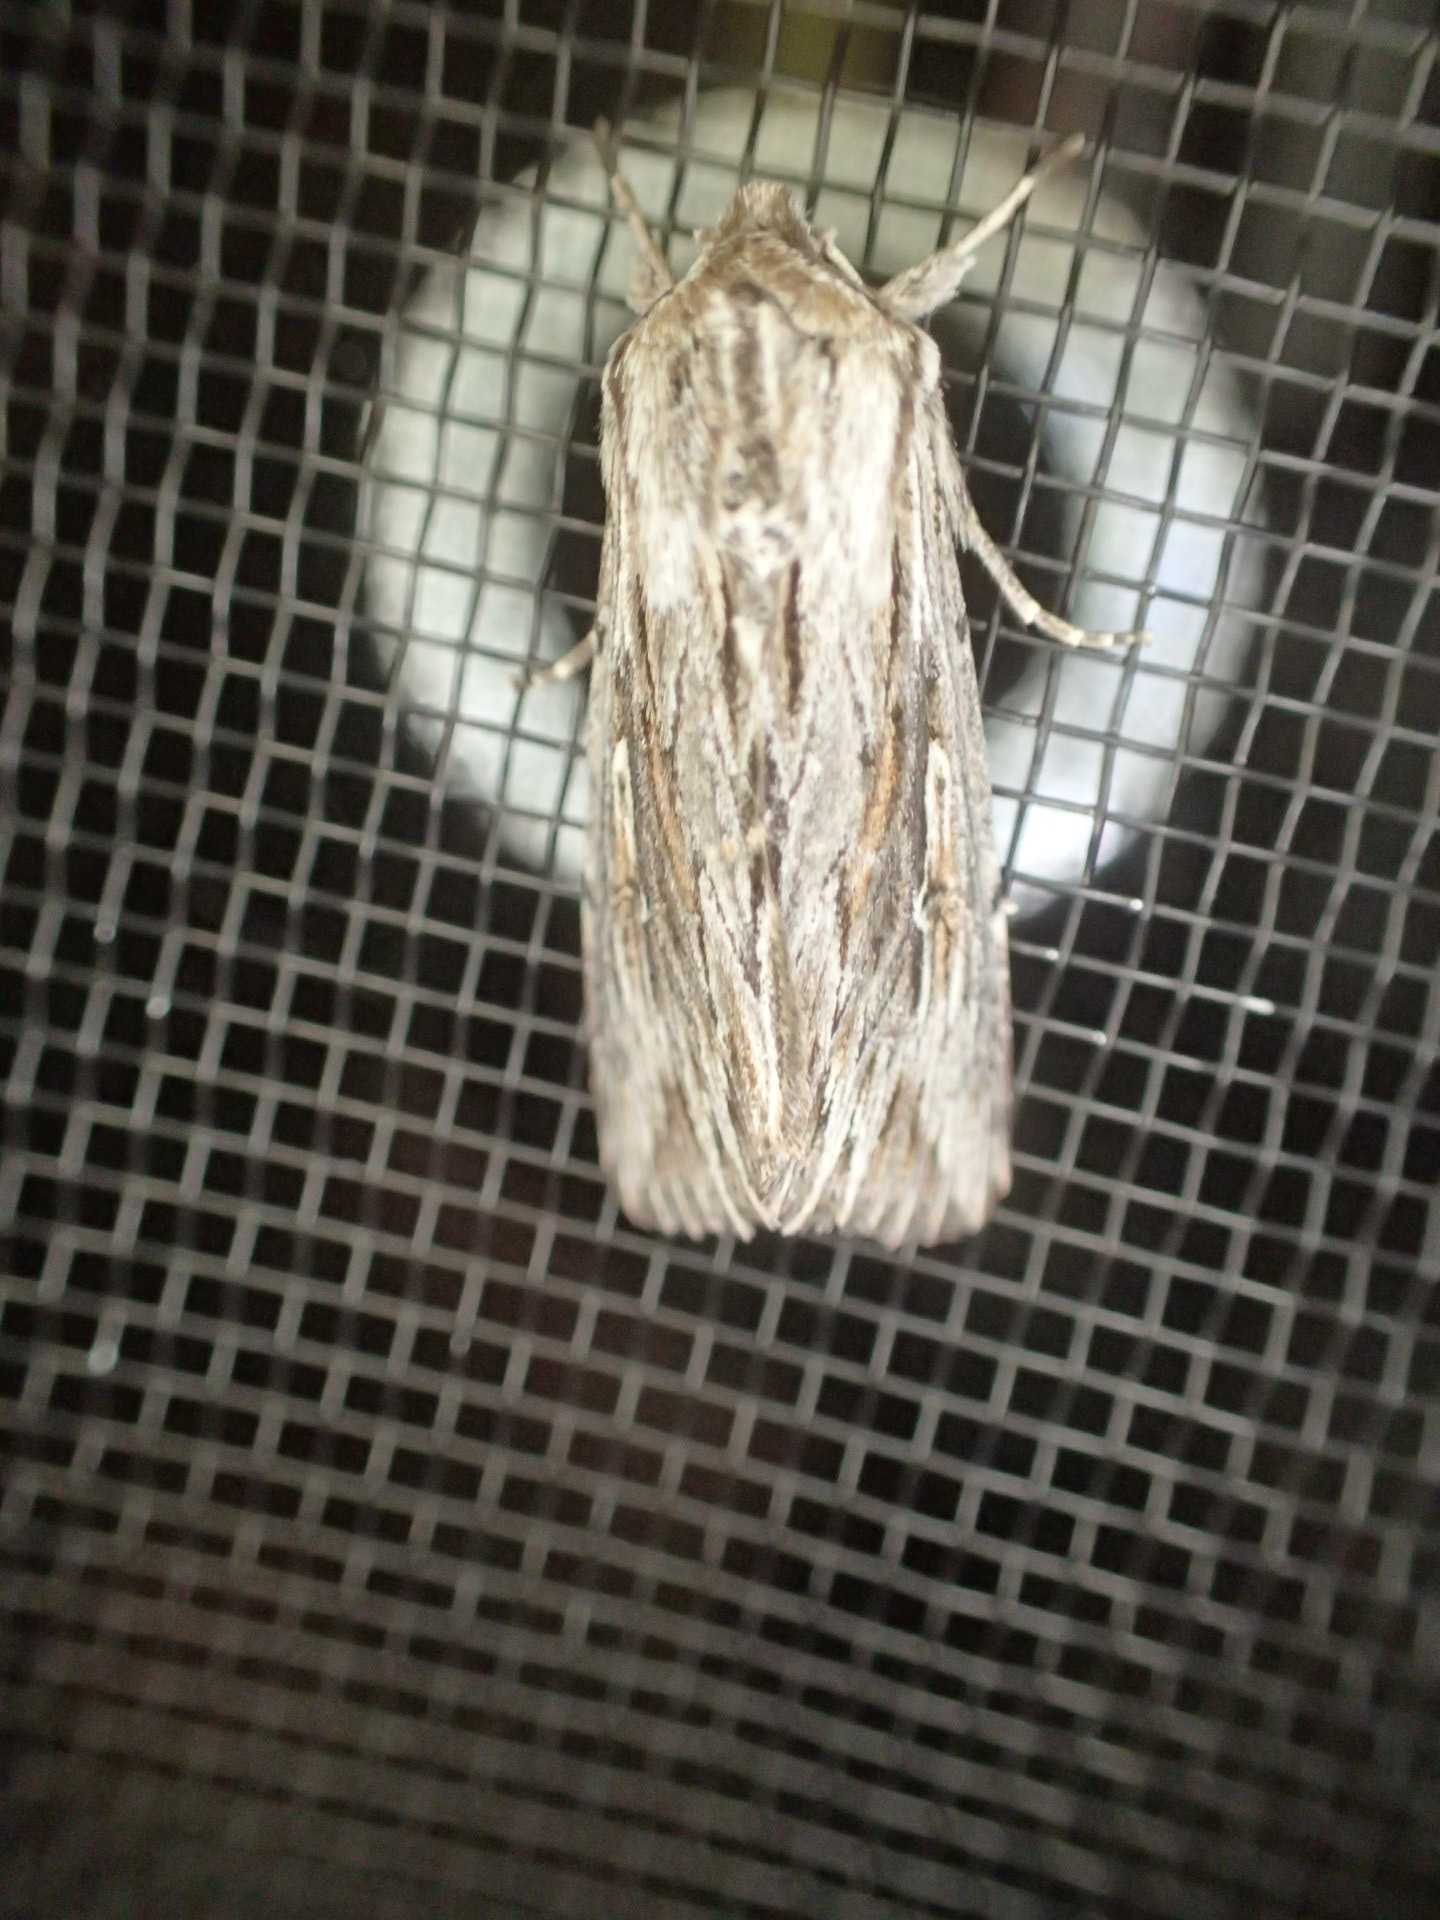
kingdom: Animalia
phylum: Arthropoda
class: Insecta
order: Lepidoptera
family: Noctuidae
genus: Persectania
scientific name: Persectania ewingii
